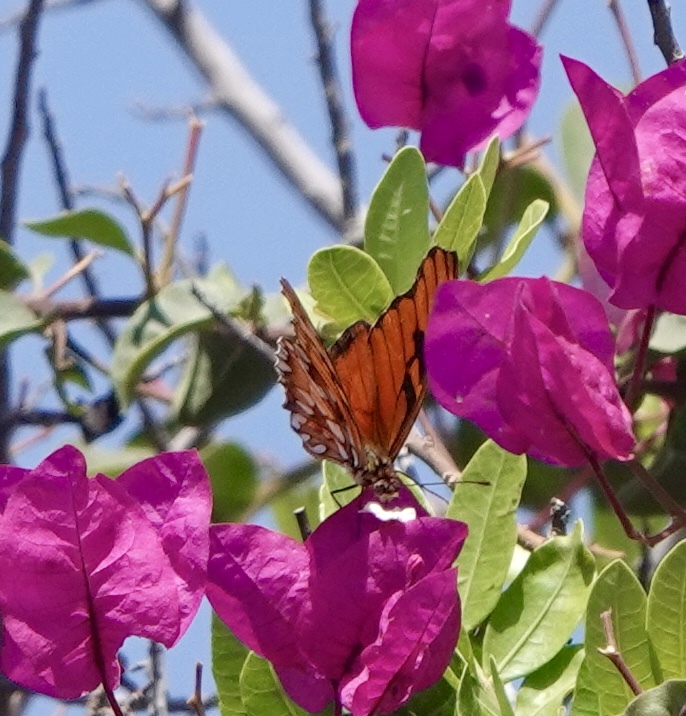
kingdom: Animalia
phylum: Arthropoda
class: Insecta
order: Lepidoptera
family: Nymphalidae
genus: Dione
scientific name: Dione juno
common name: Juno silverspot
